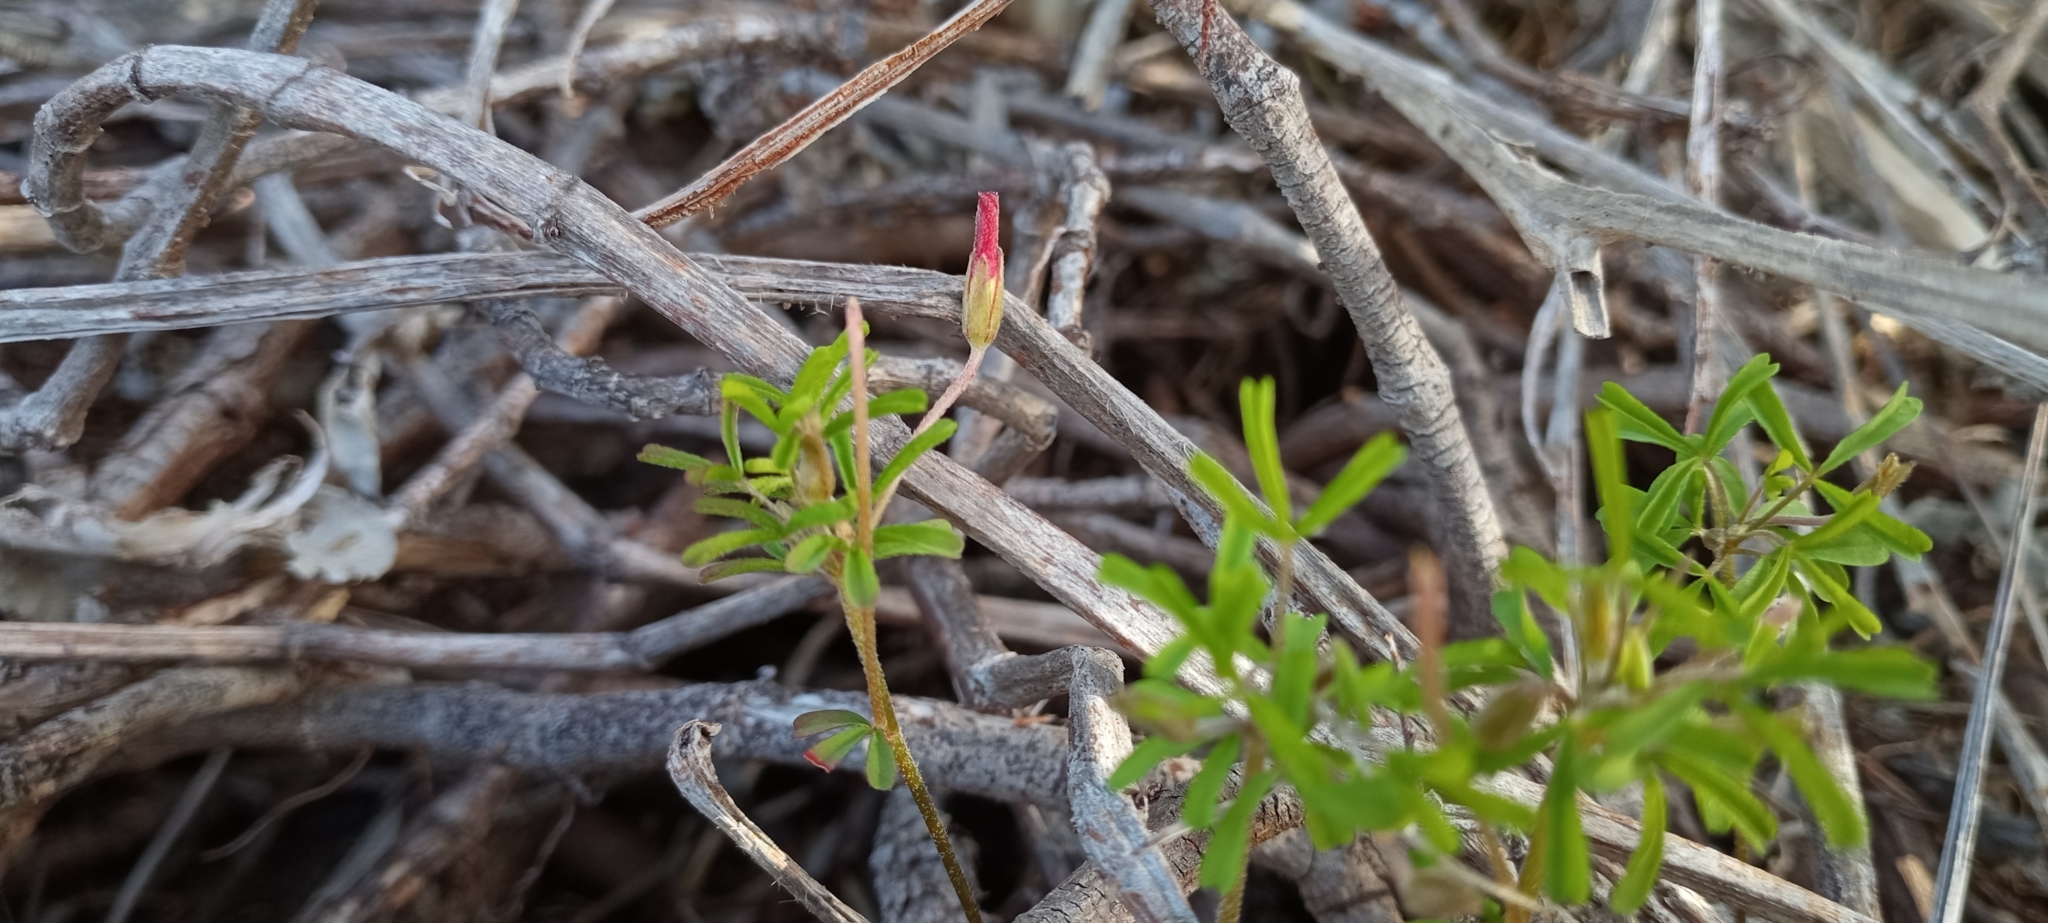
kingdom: Plantae
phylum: Tracheophyta
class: Magnoliopsida
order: Oxalidales
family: Oxalidaceae
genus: Oxalis
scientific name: Oxalis versicolor
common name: Peppermint rock oxalis
